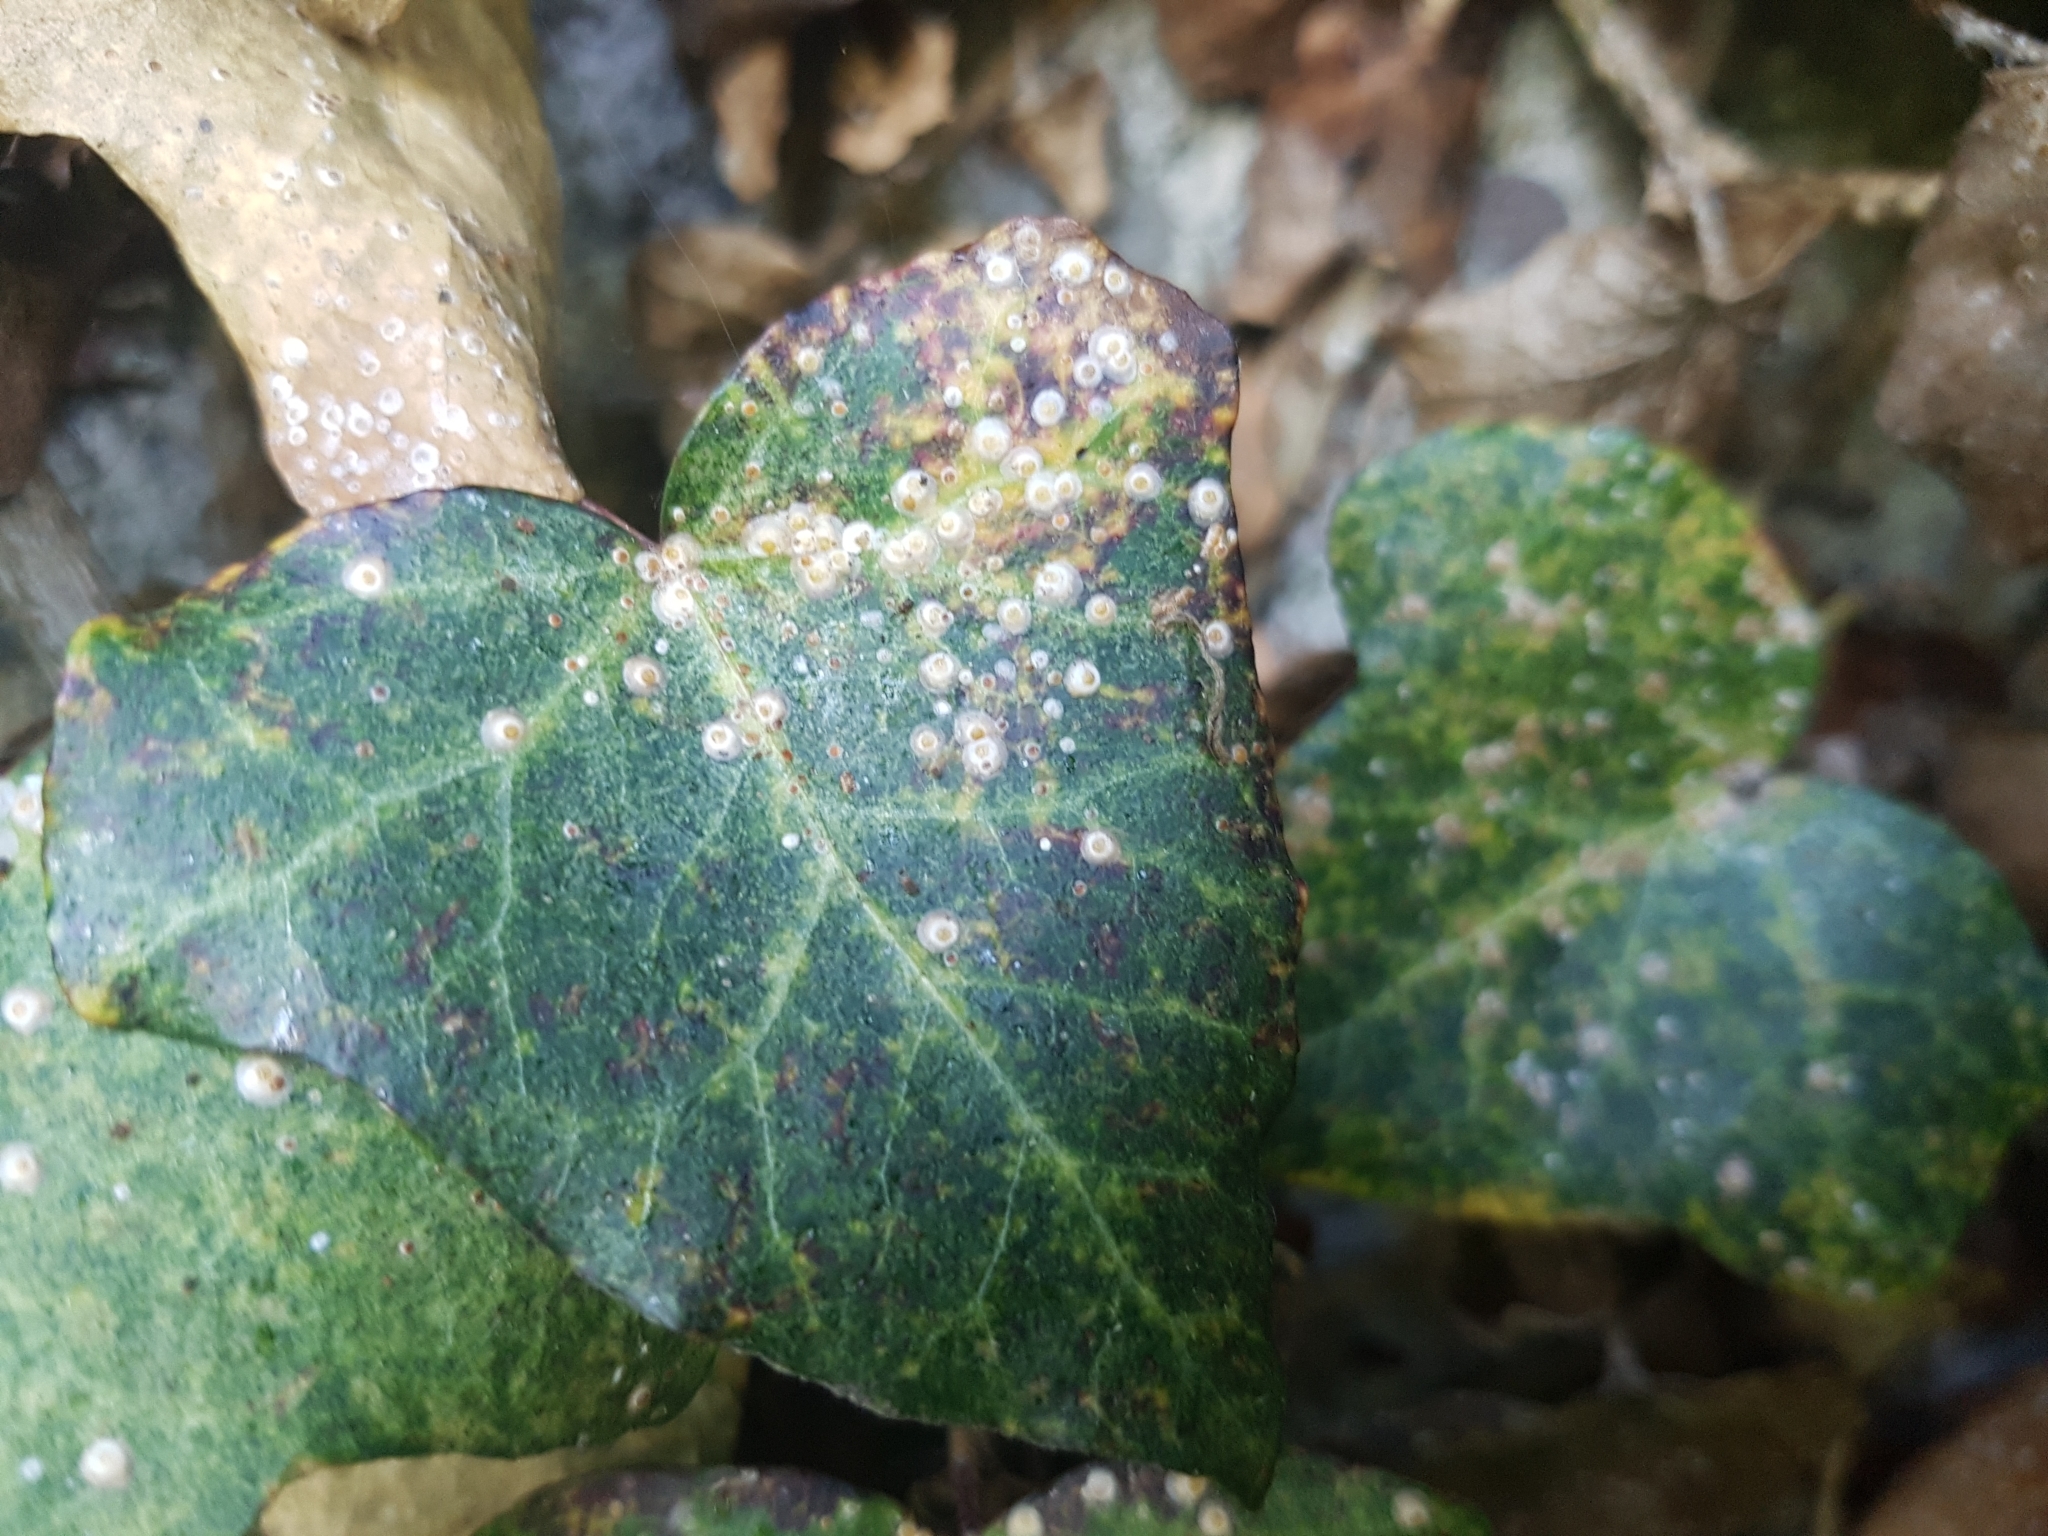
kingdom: Plantae
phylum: Tracheophyta
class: Magnoliopsida
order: Apiales
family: Araliaceae
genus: Hedera
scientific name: Hedera helix
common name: Ivy
